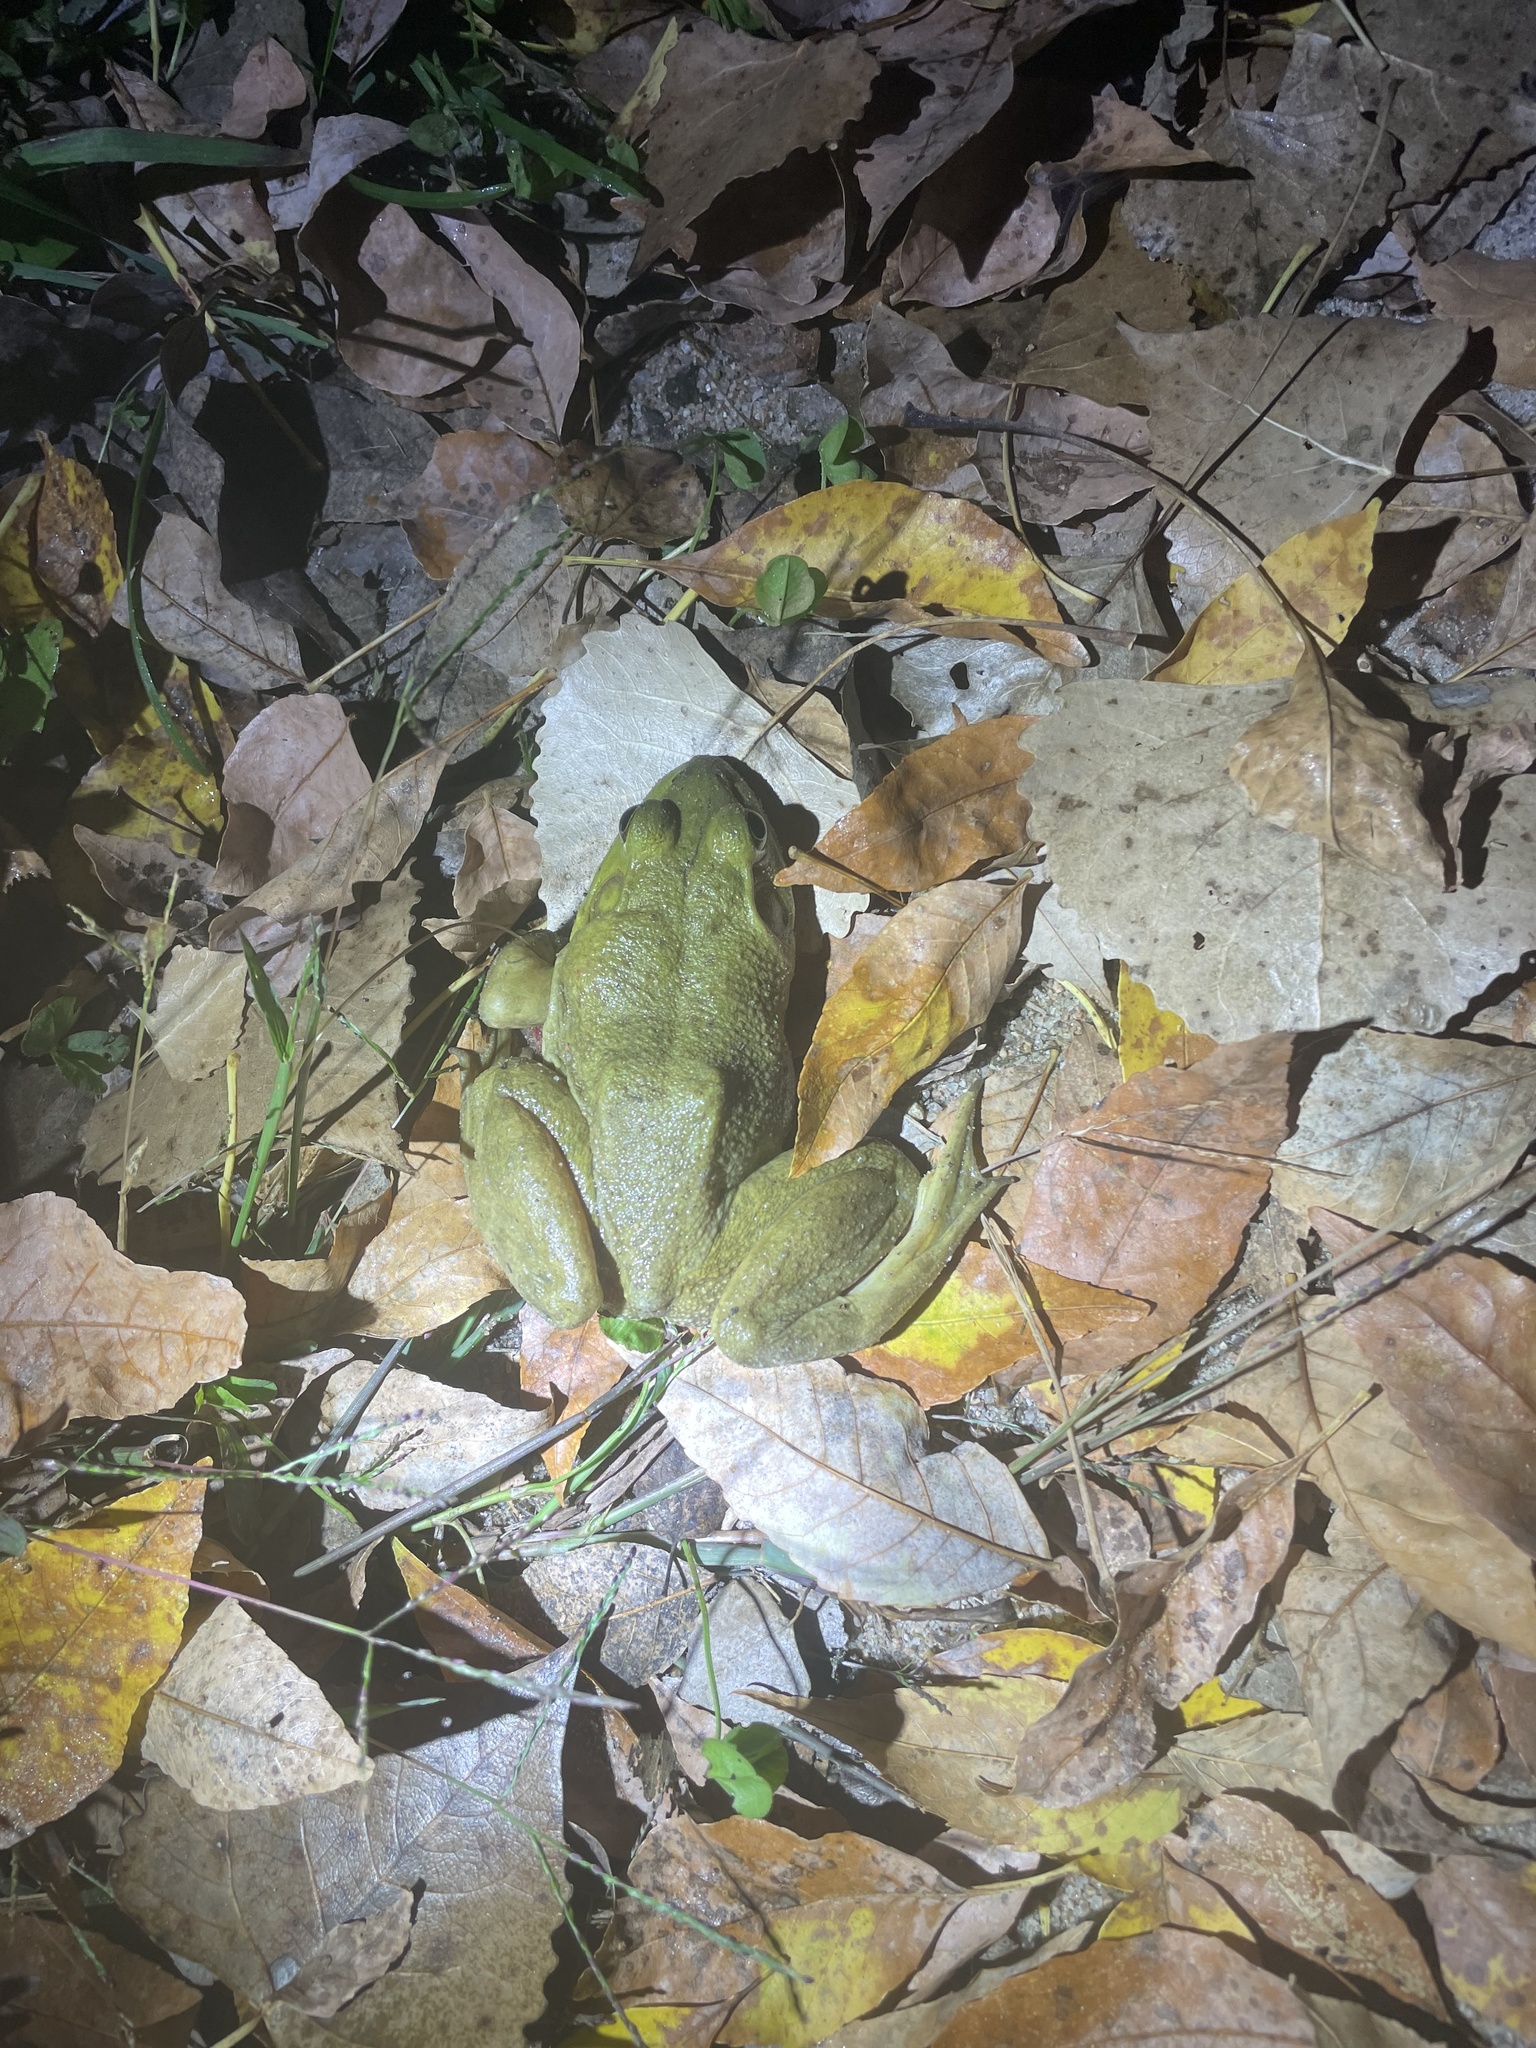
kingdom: Animalia
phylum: Chordata
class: Amphibia
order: Anura
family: Ranidae
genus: Lithobates
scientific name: Lithobates catesbeianus
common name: American bullfrog
